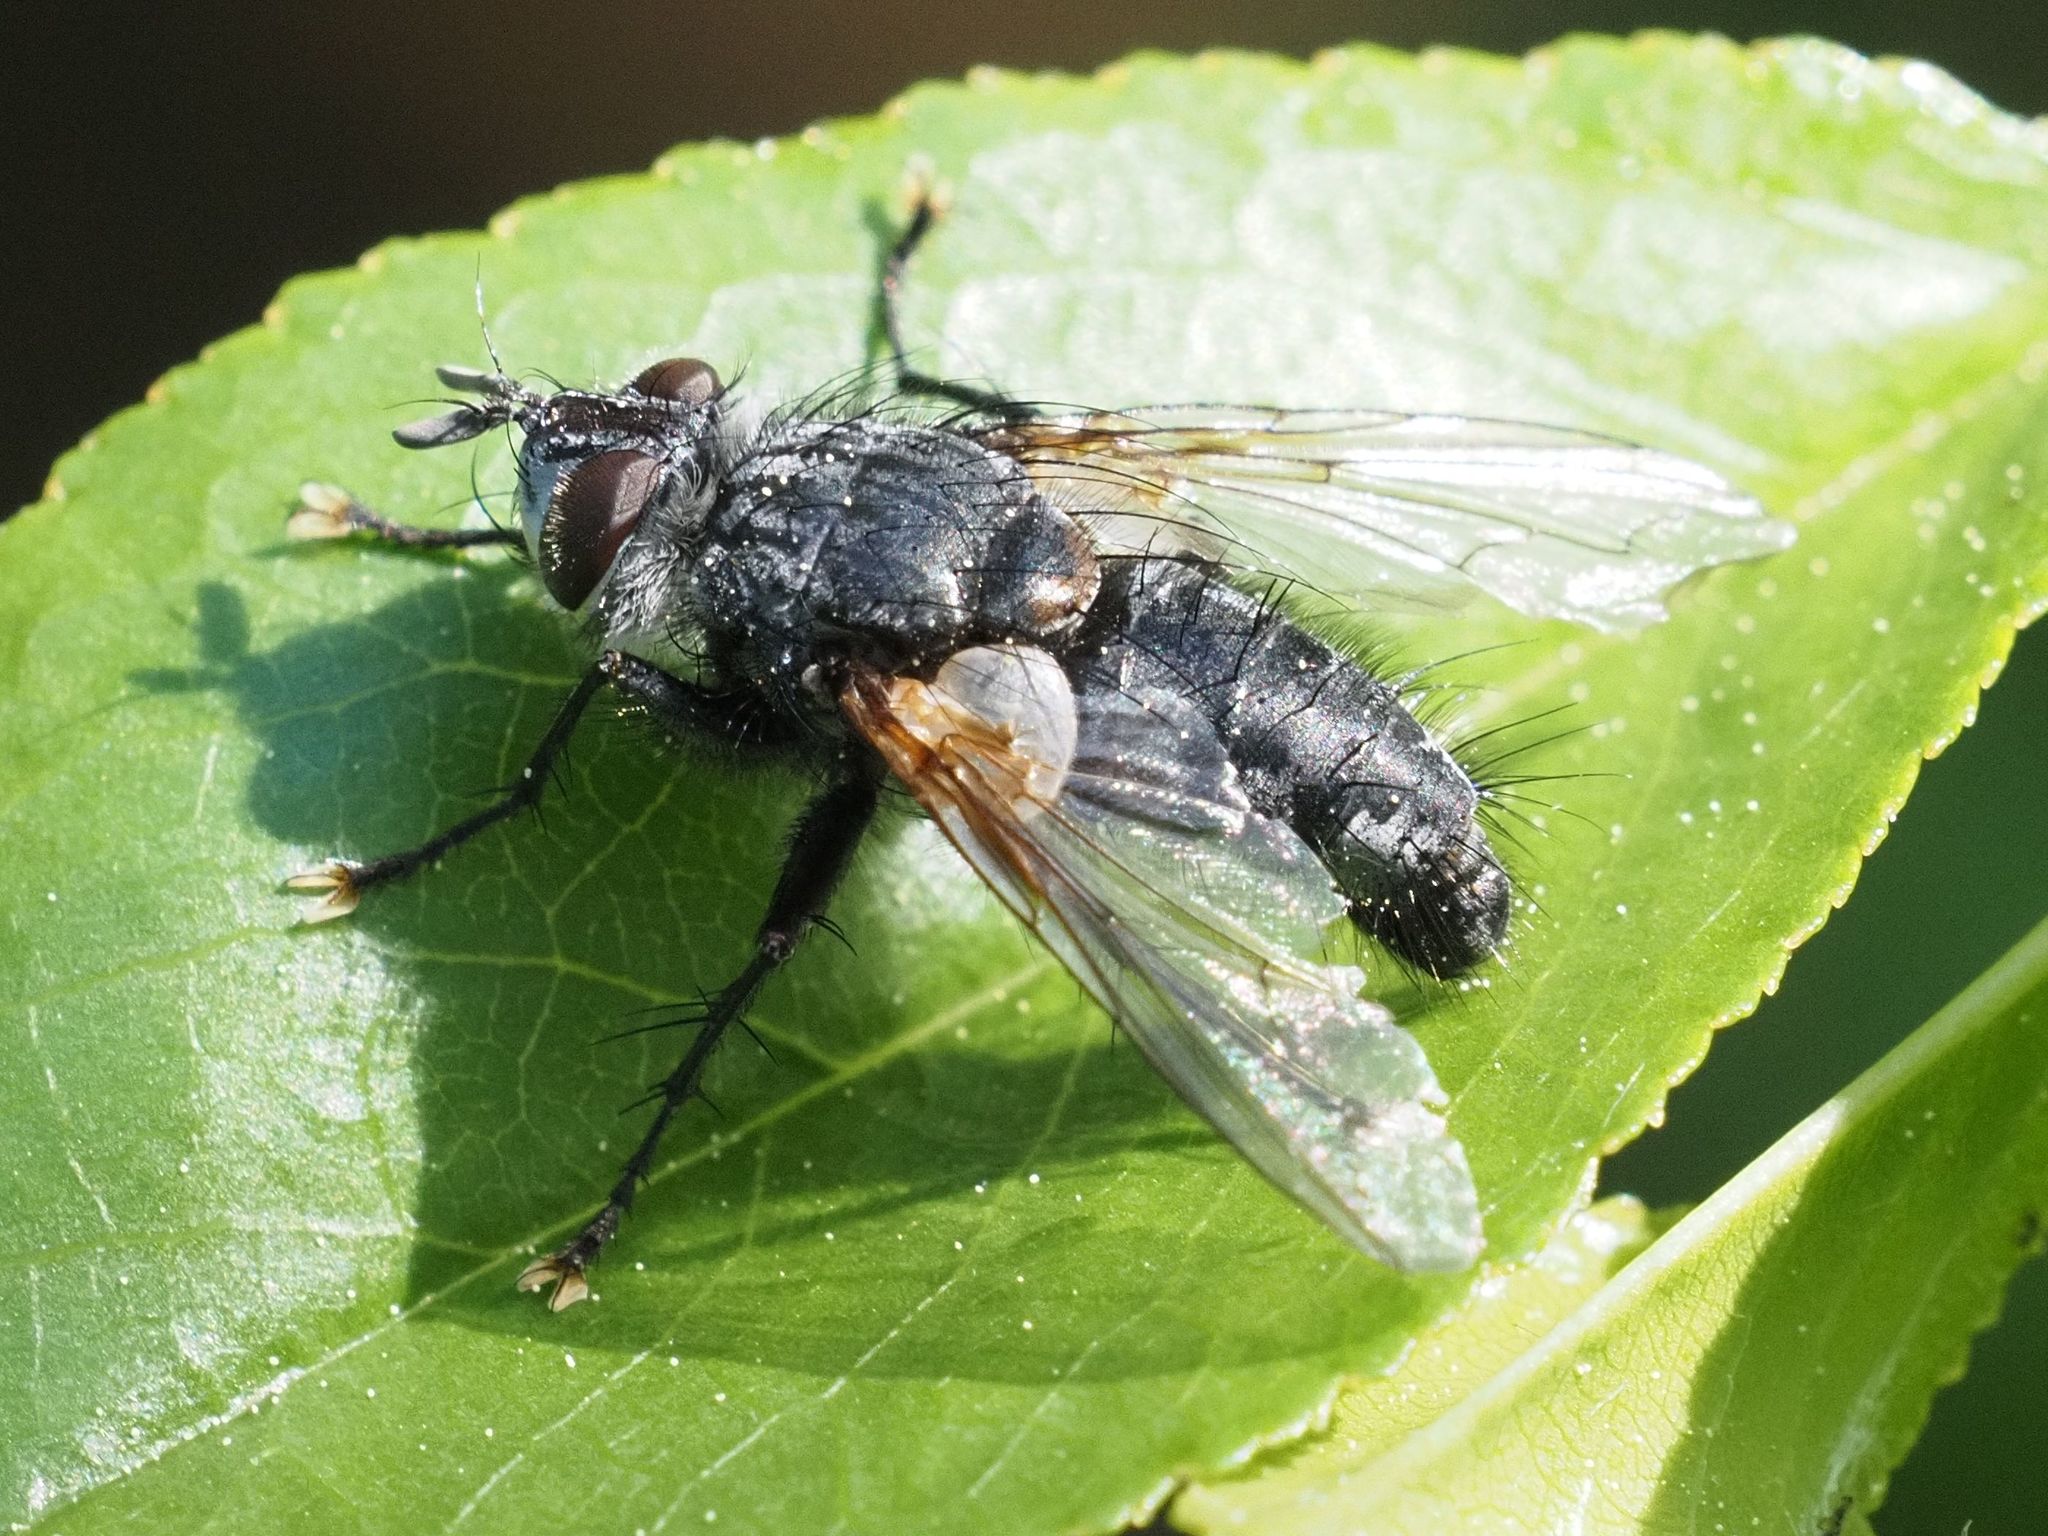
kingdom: Animalia
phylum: Arthropoda
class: Insecta
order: Diptera
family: Tachinidae
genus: Phorocera
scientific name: Phorocera assimilis
